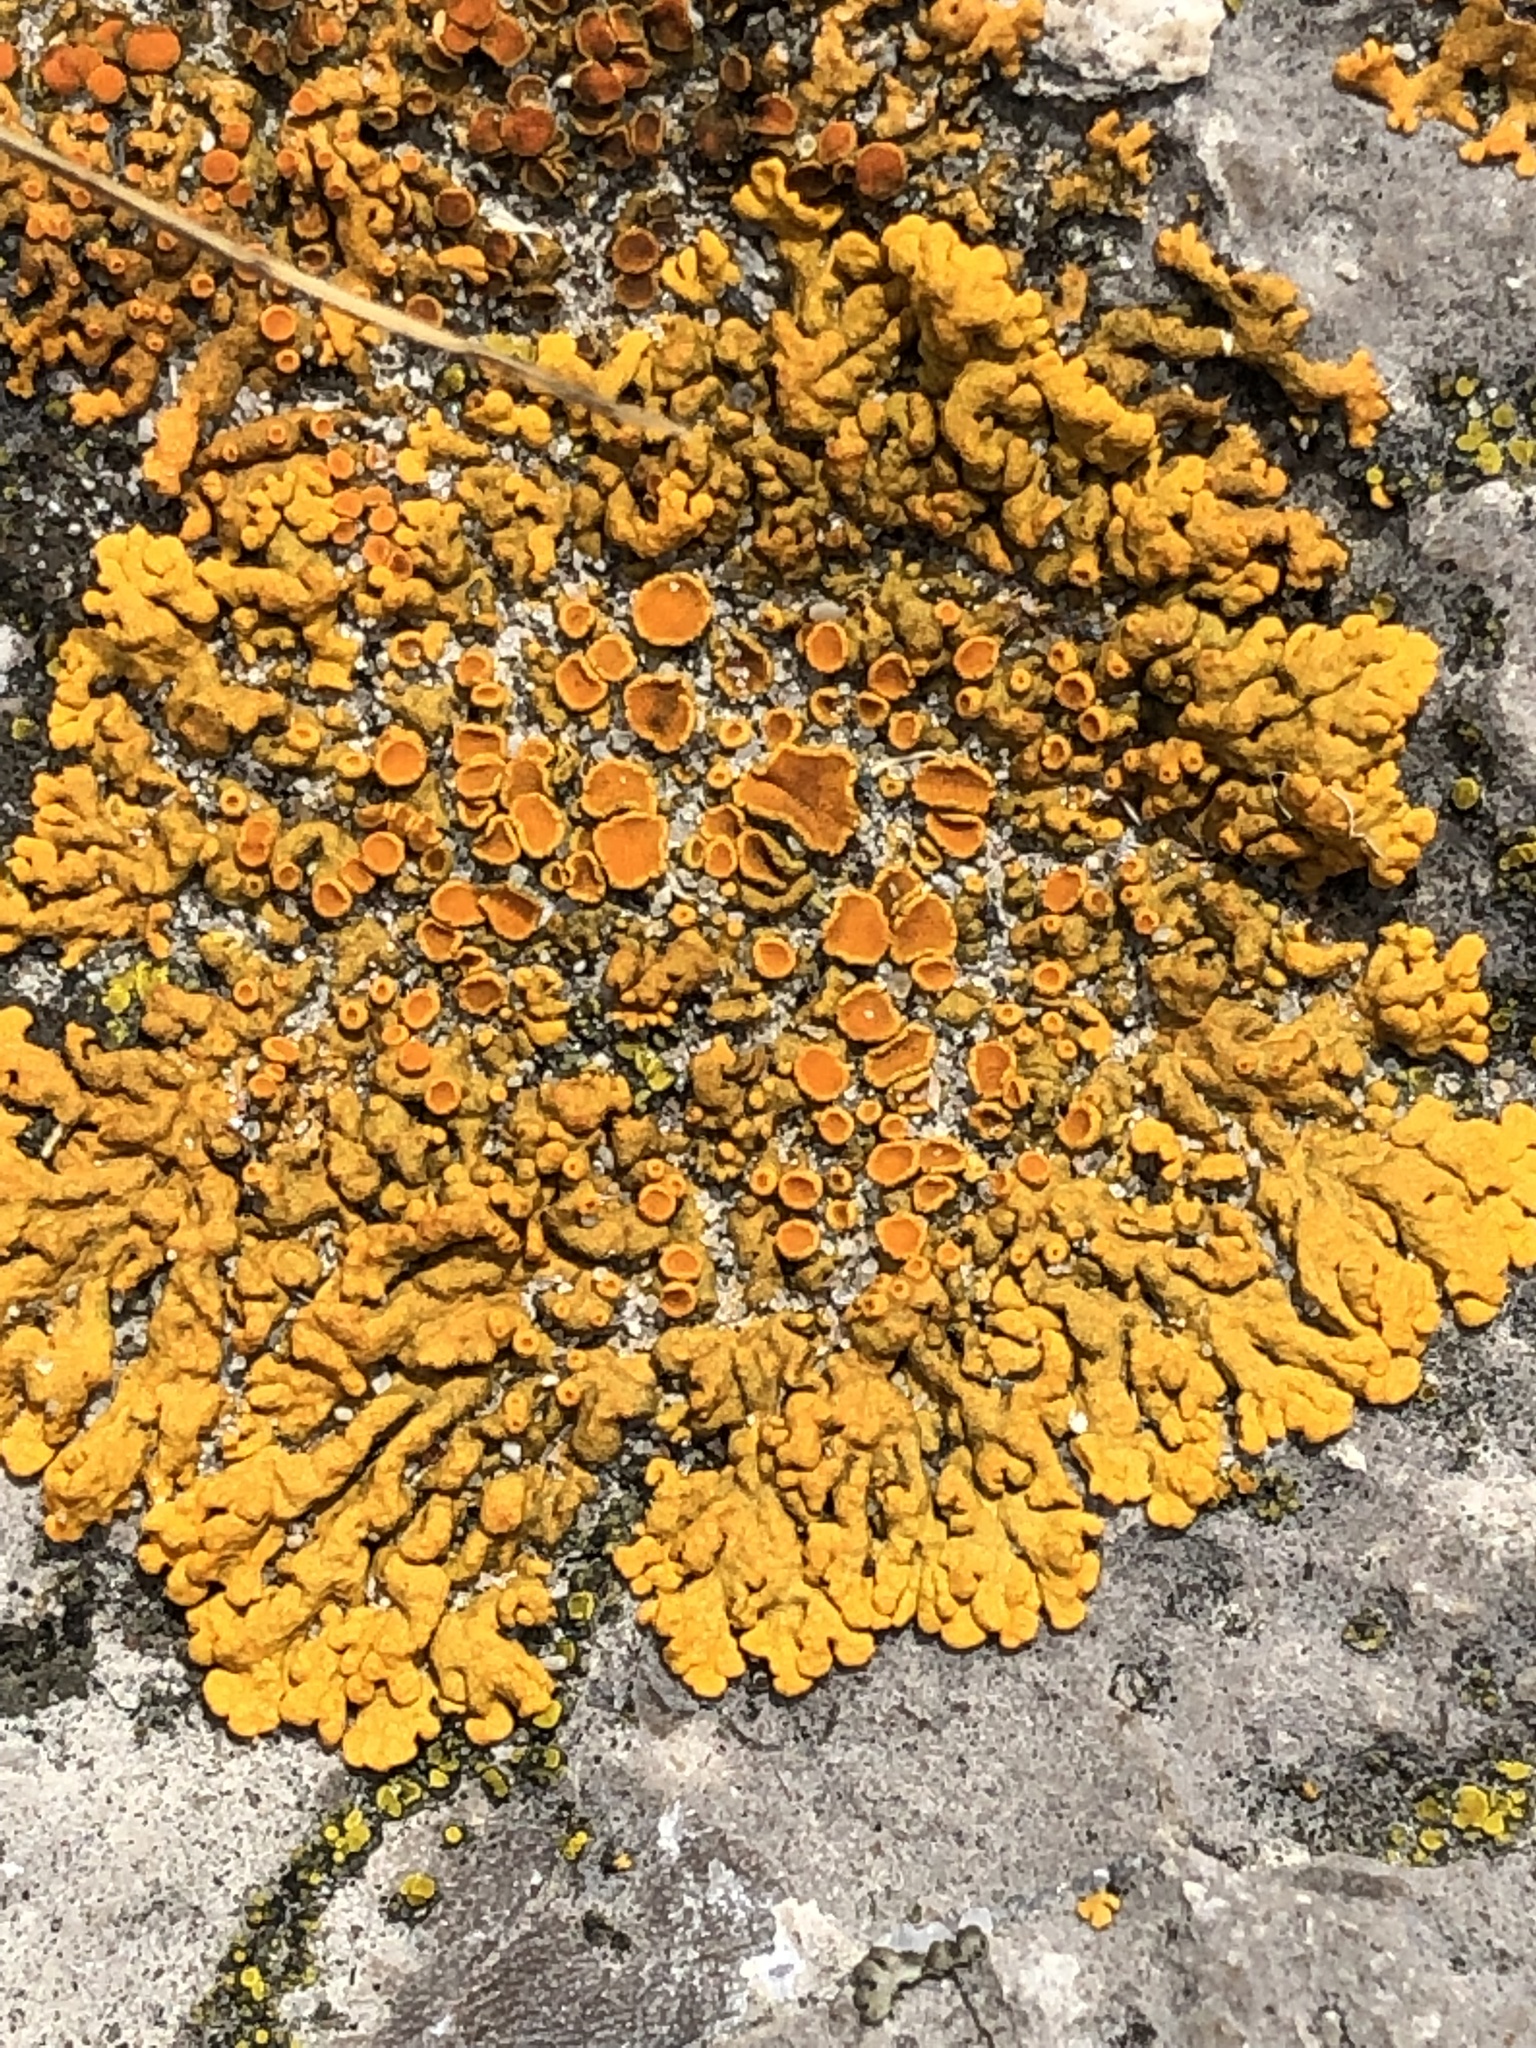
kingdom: Fungi
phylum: Ascomycota
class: Lecanoromycetes
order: Teloschistales
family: Teloschistaceae
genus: Xanthoria
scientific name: Xanthoria parietina
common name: Common orange lichen
